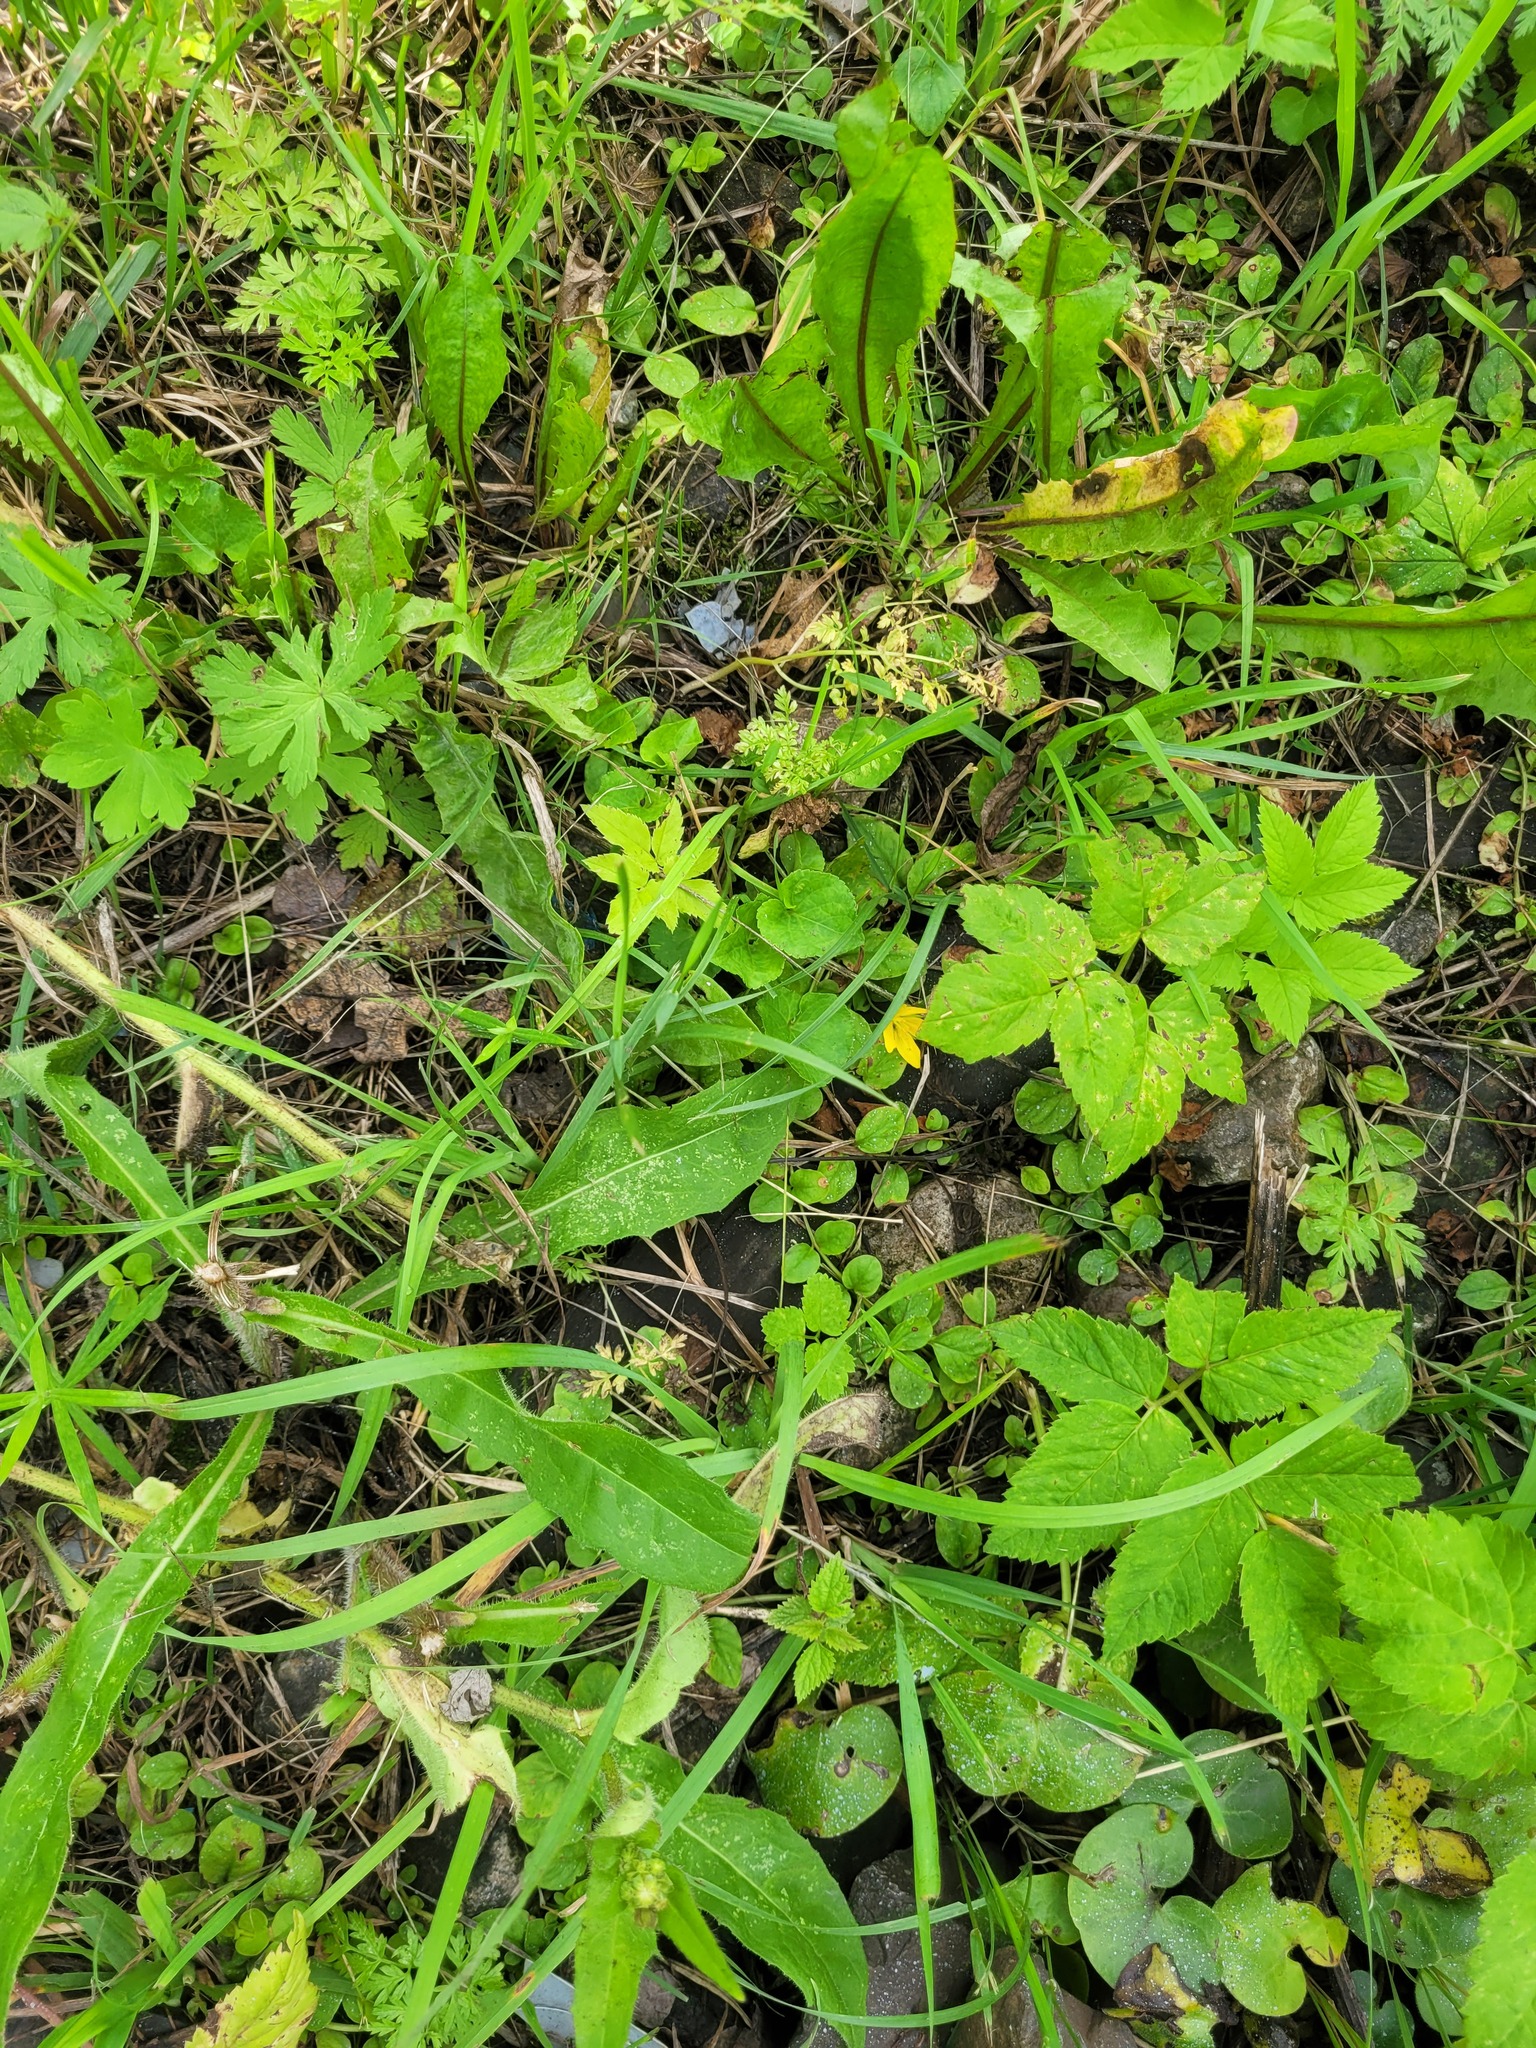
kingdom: Plantae
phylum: Tracheophyta
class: Magnoliopsida
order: Ericales
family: Primulaceae
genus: Lysimachia
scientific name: Lysimachia nummularia
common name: Moneywort
